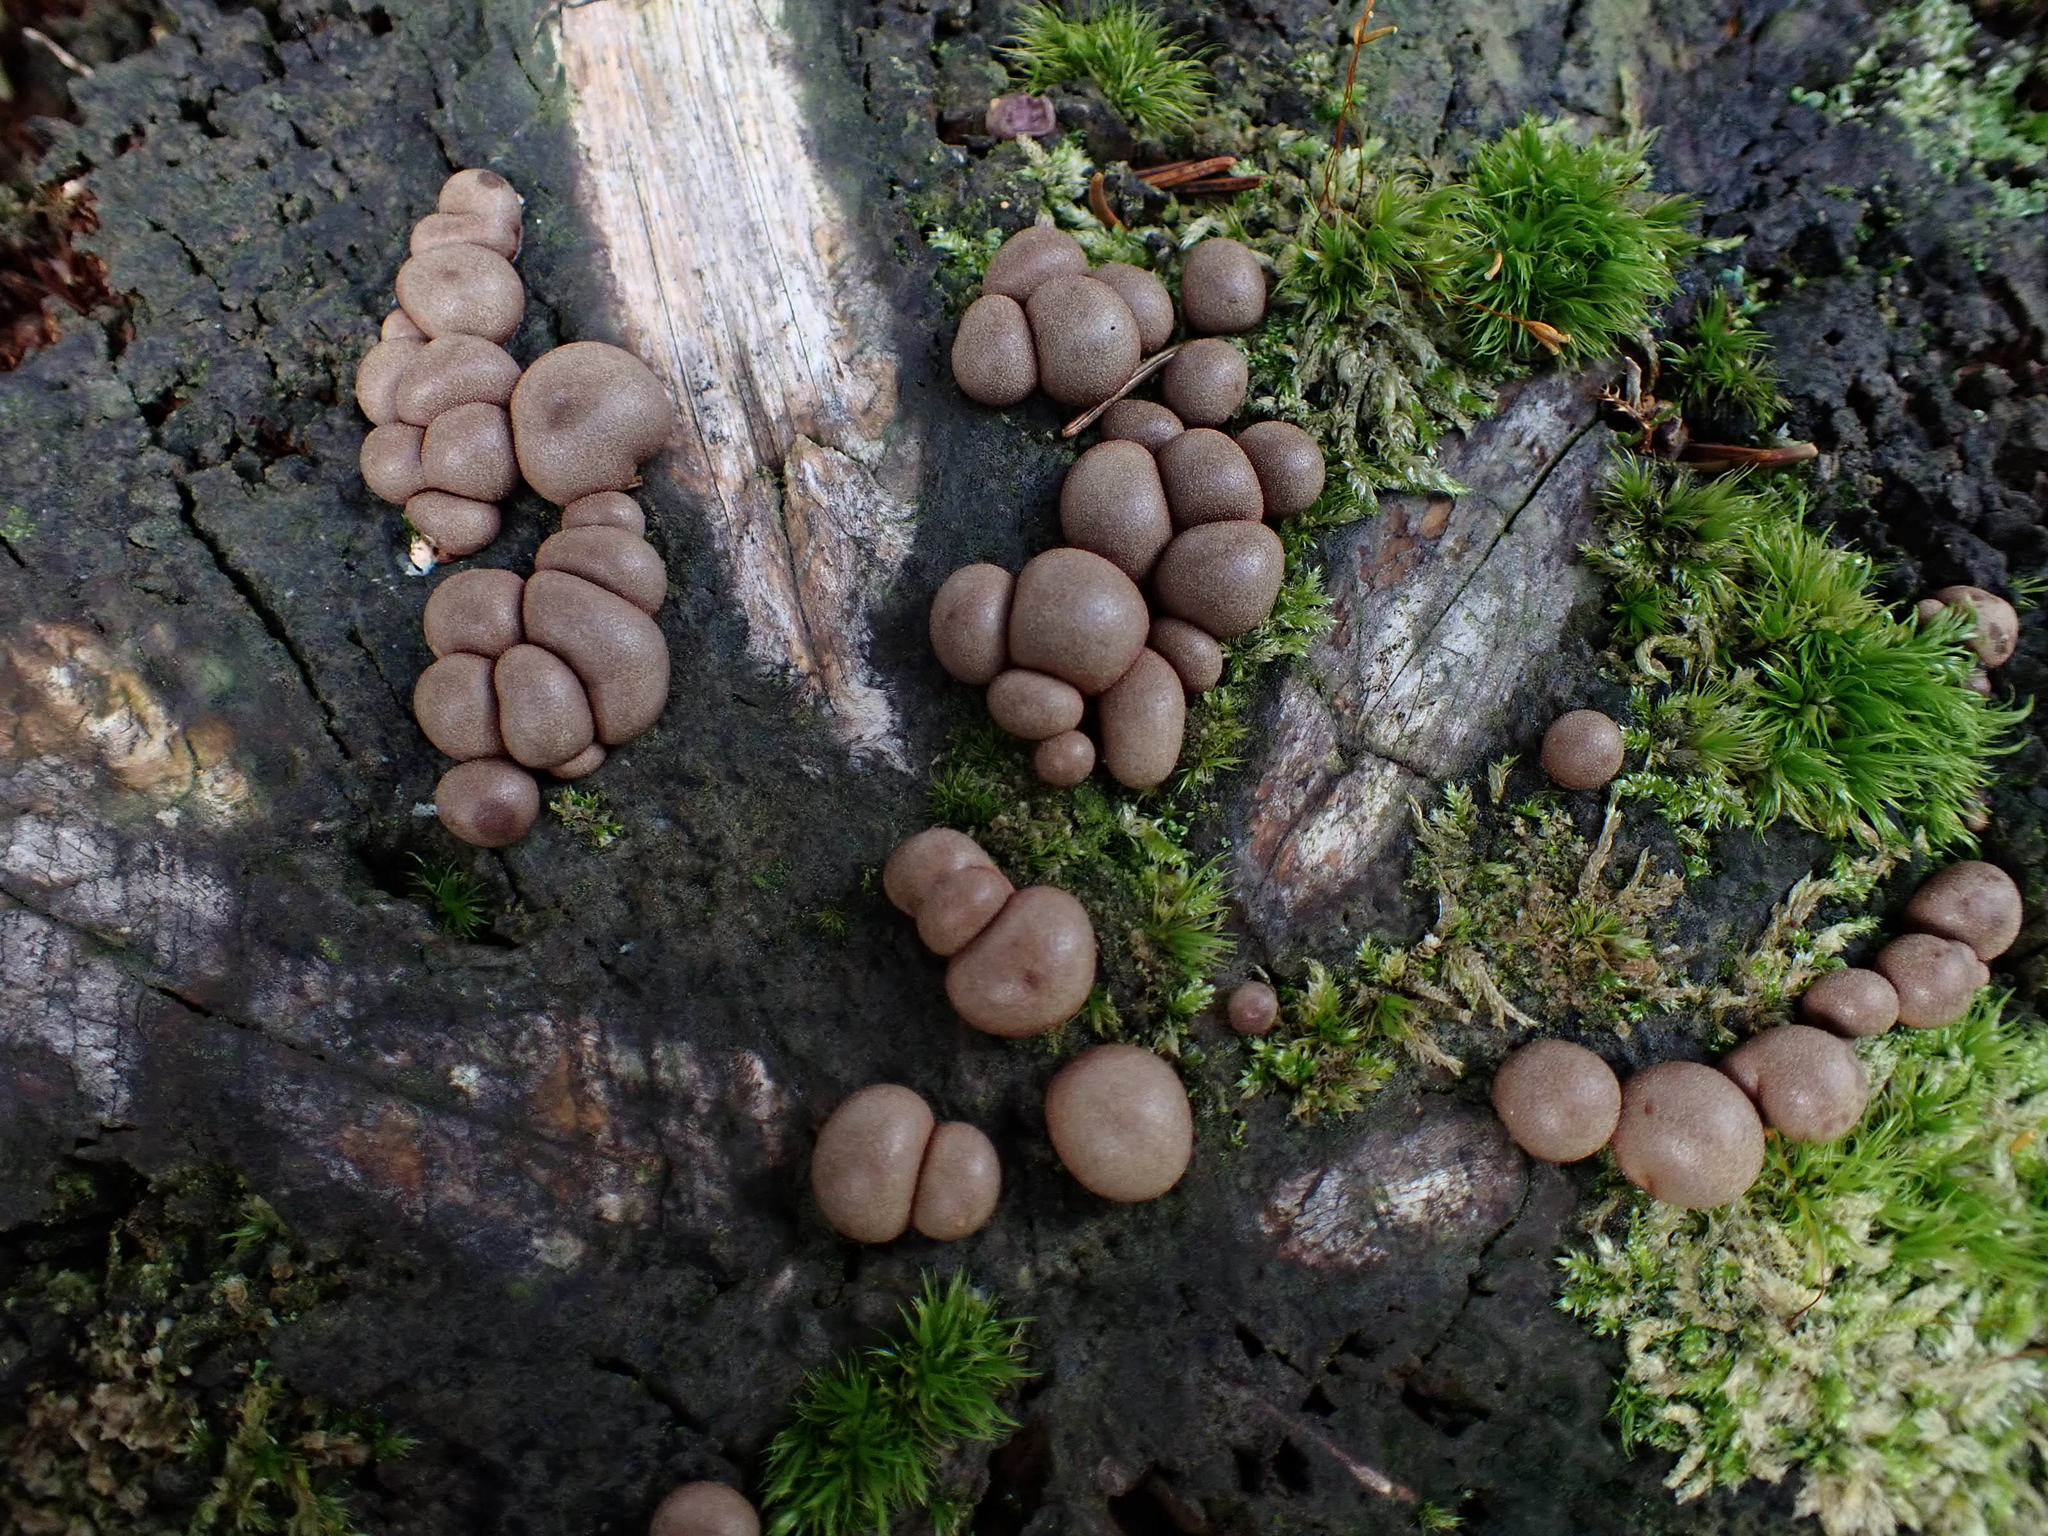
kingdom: Protozoa
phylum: Mycetozoa
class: Myxomycetes
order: Cribrariales
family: Tubiferaceae
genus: Lycogala
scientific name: Lycogala epidendrum
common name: Wolf's milk
